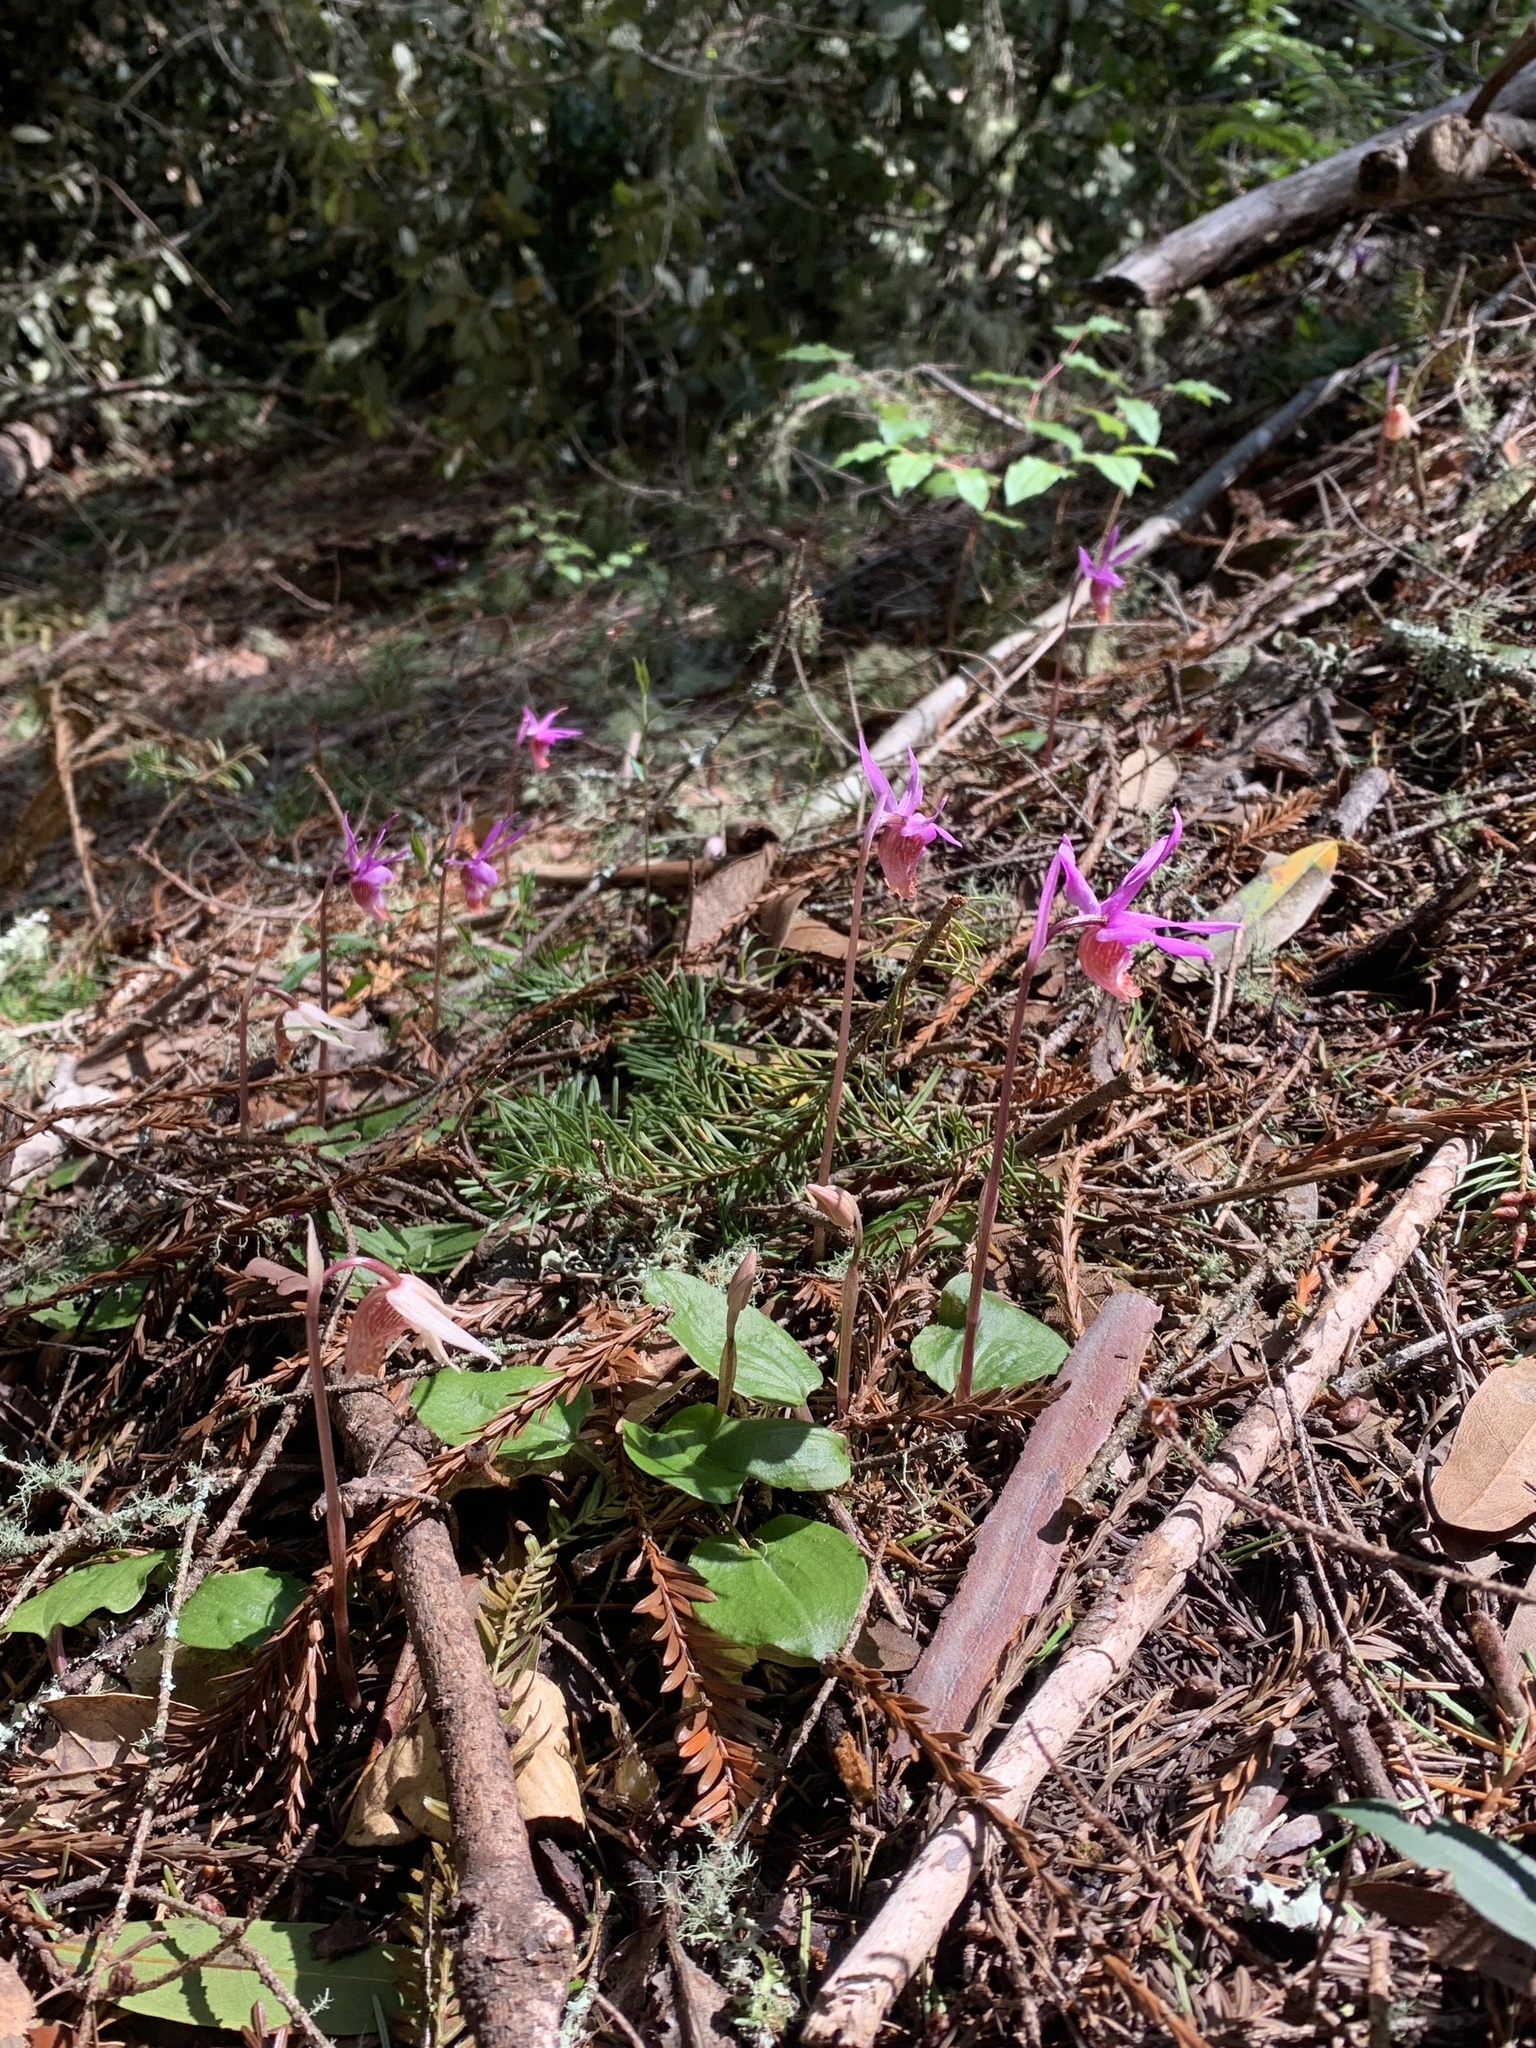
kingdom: Plantae
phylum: Tracheophyta
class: Liliopsida
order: Asparagales
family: Orchidaceae
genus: Calypso
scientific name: Calypso bulbosa
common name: Calypso
